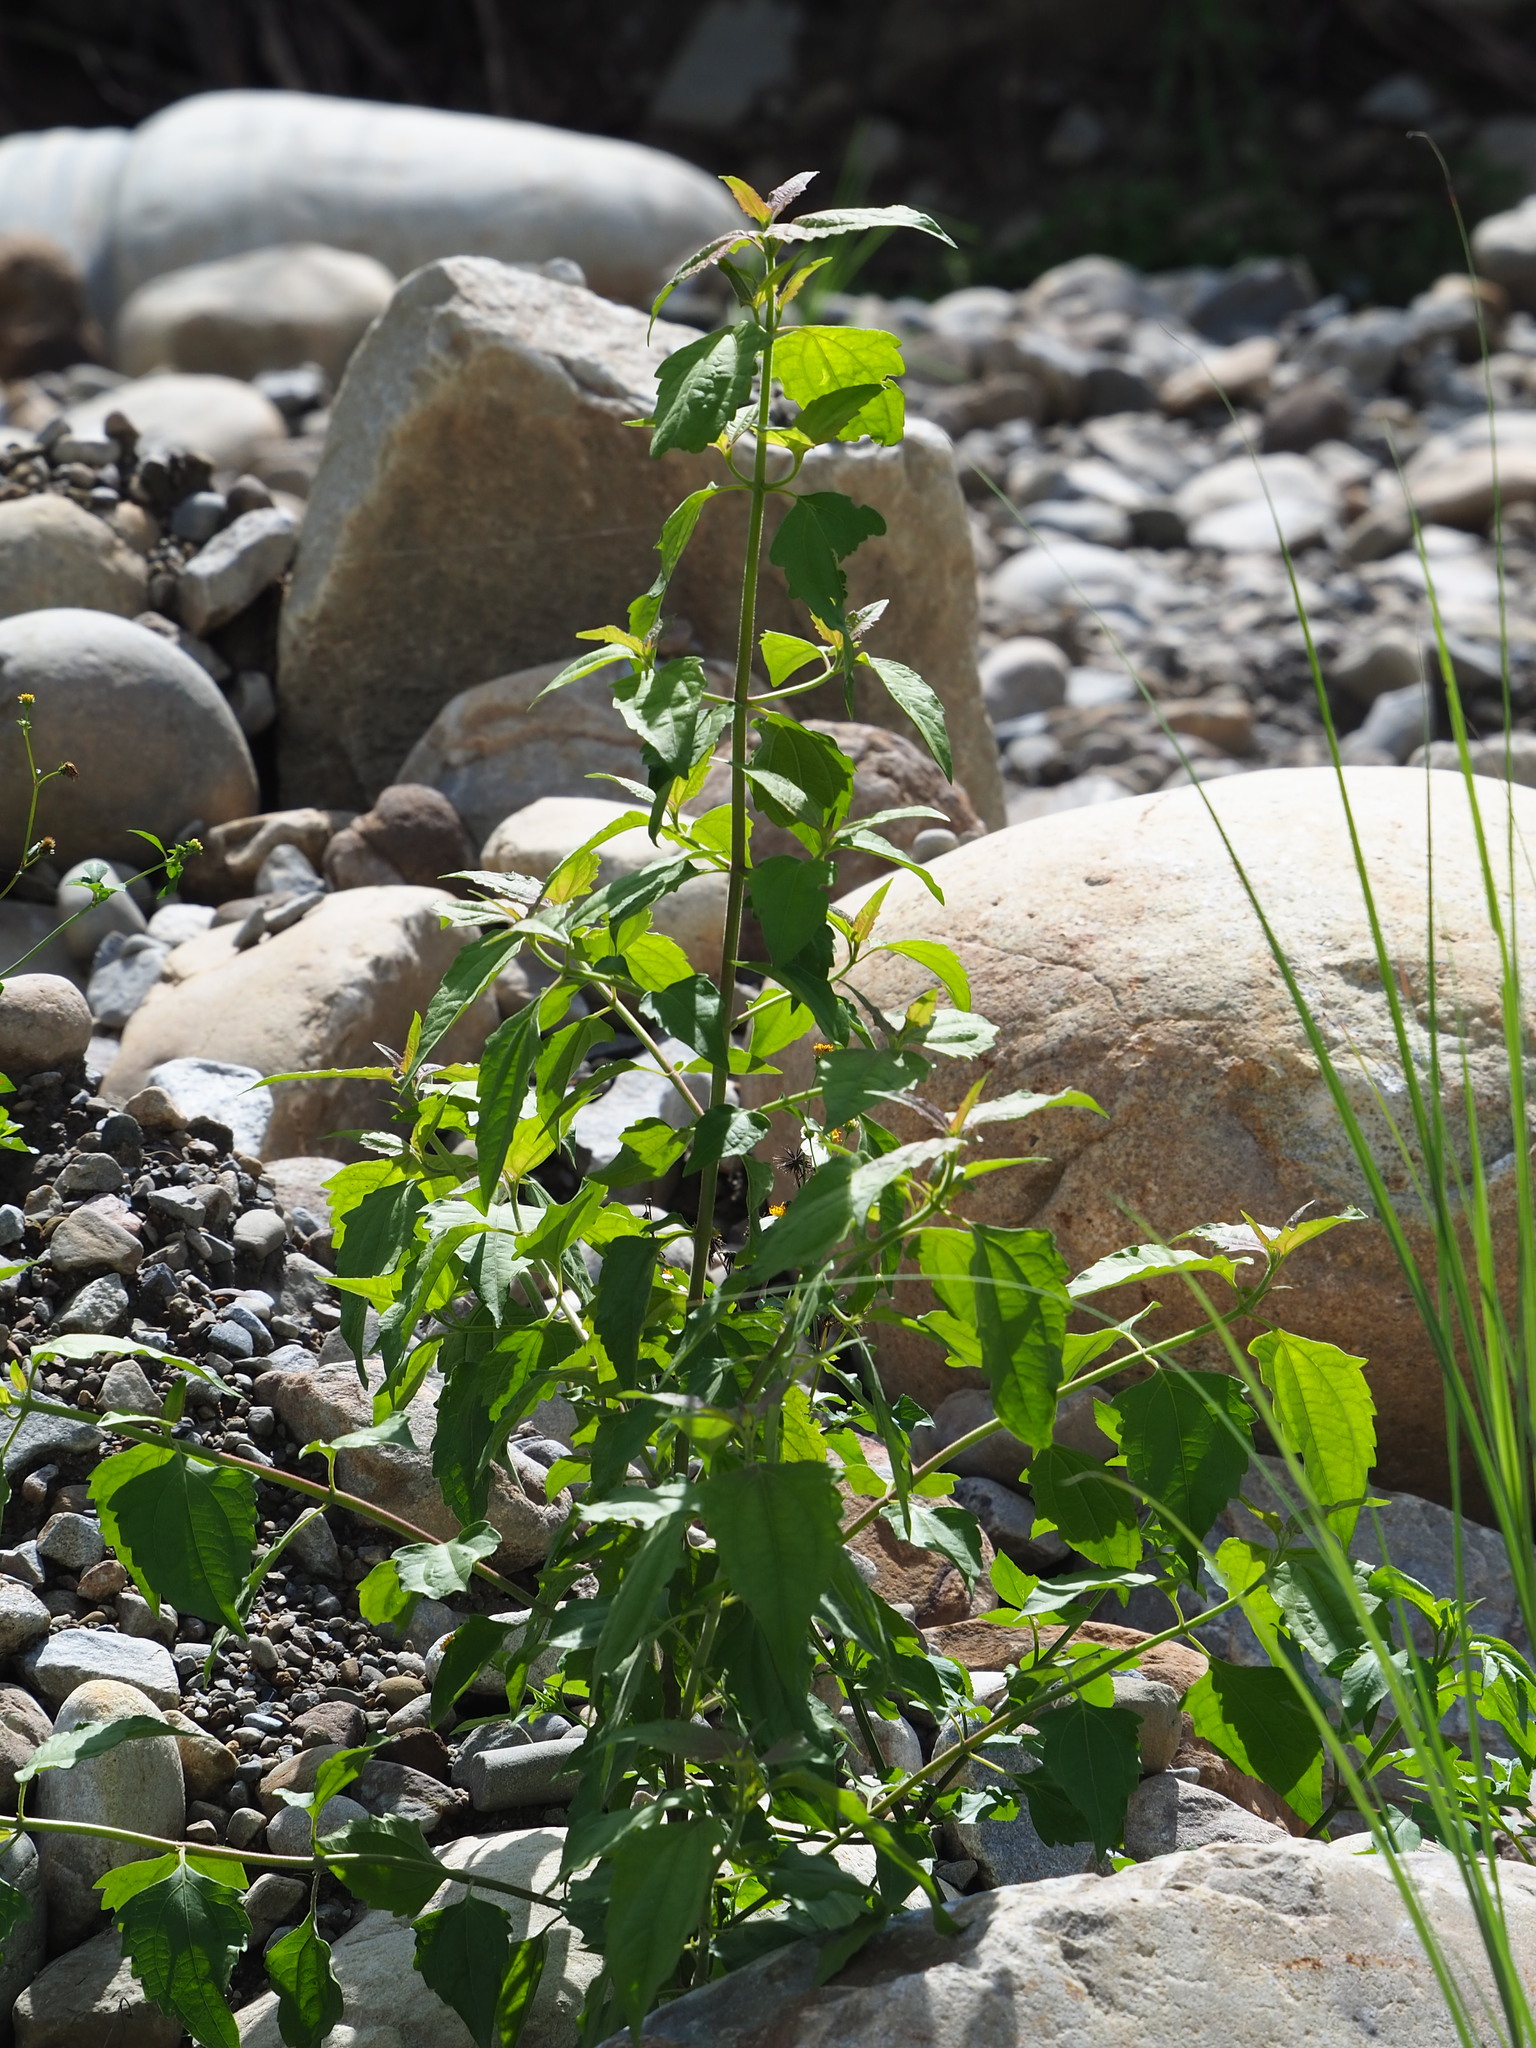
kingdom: Plantae
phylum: Tracheophyta
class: Magnoliopsida
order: Asterales
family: Asteraceae
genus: Chromolaena
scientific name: Chromolaena odorata
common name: Siamweed
